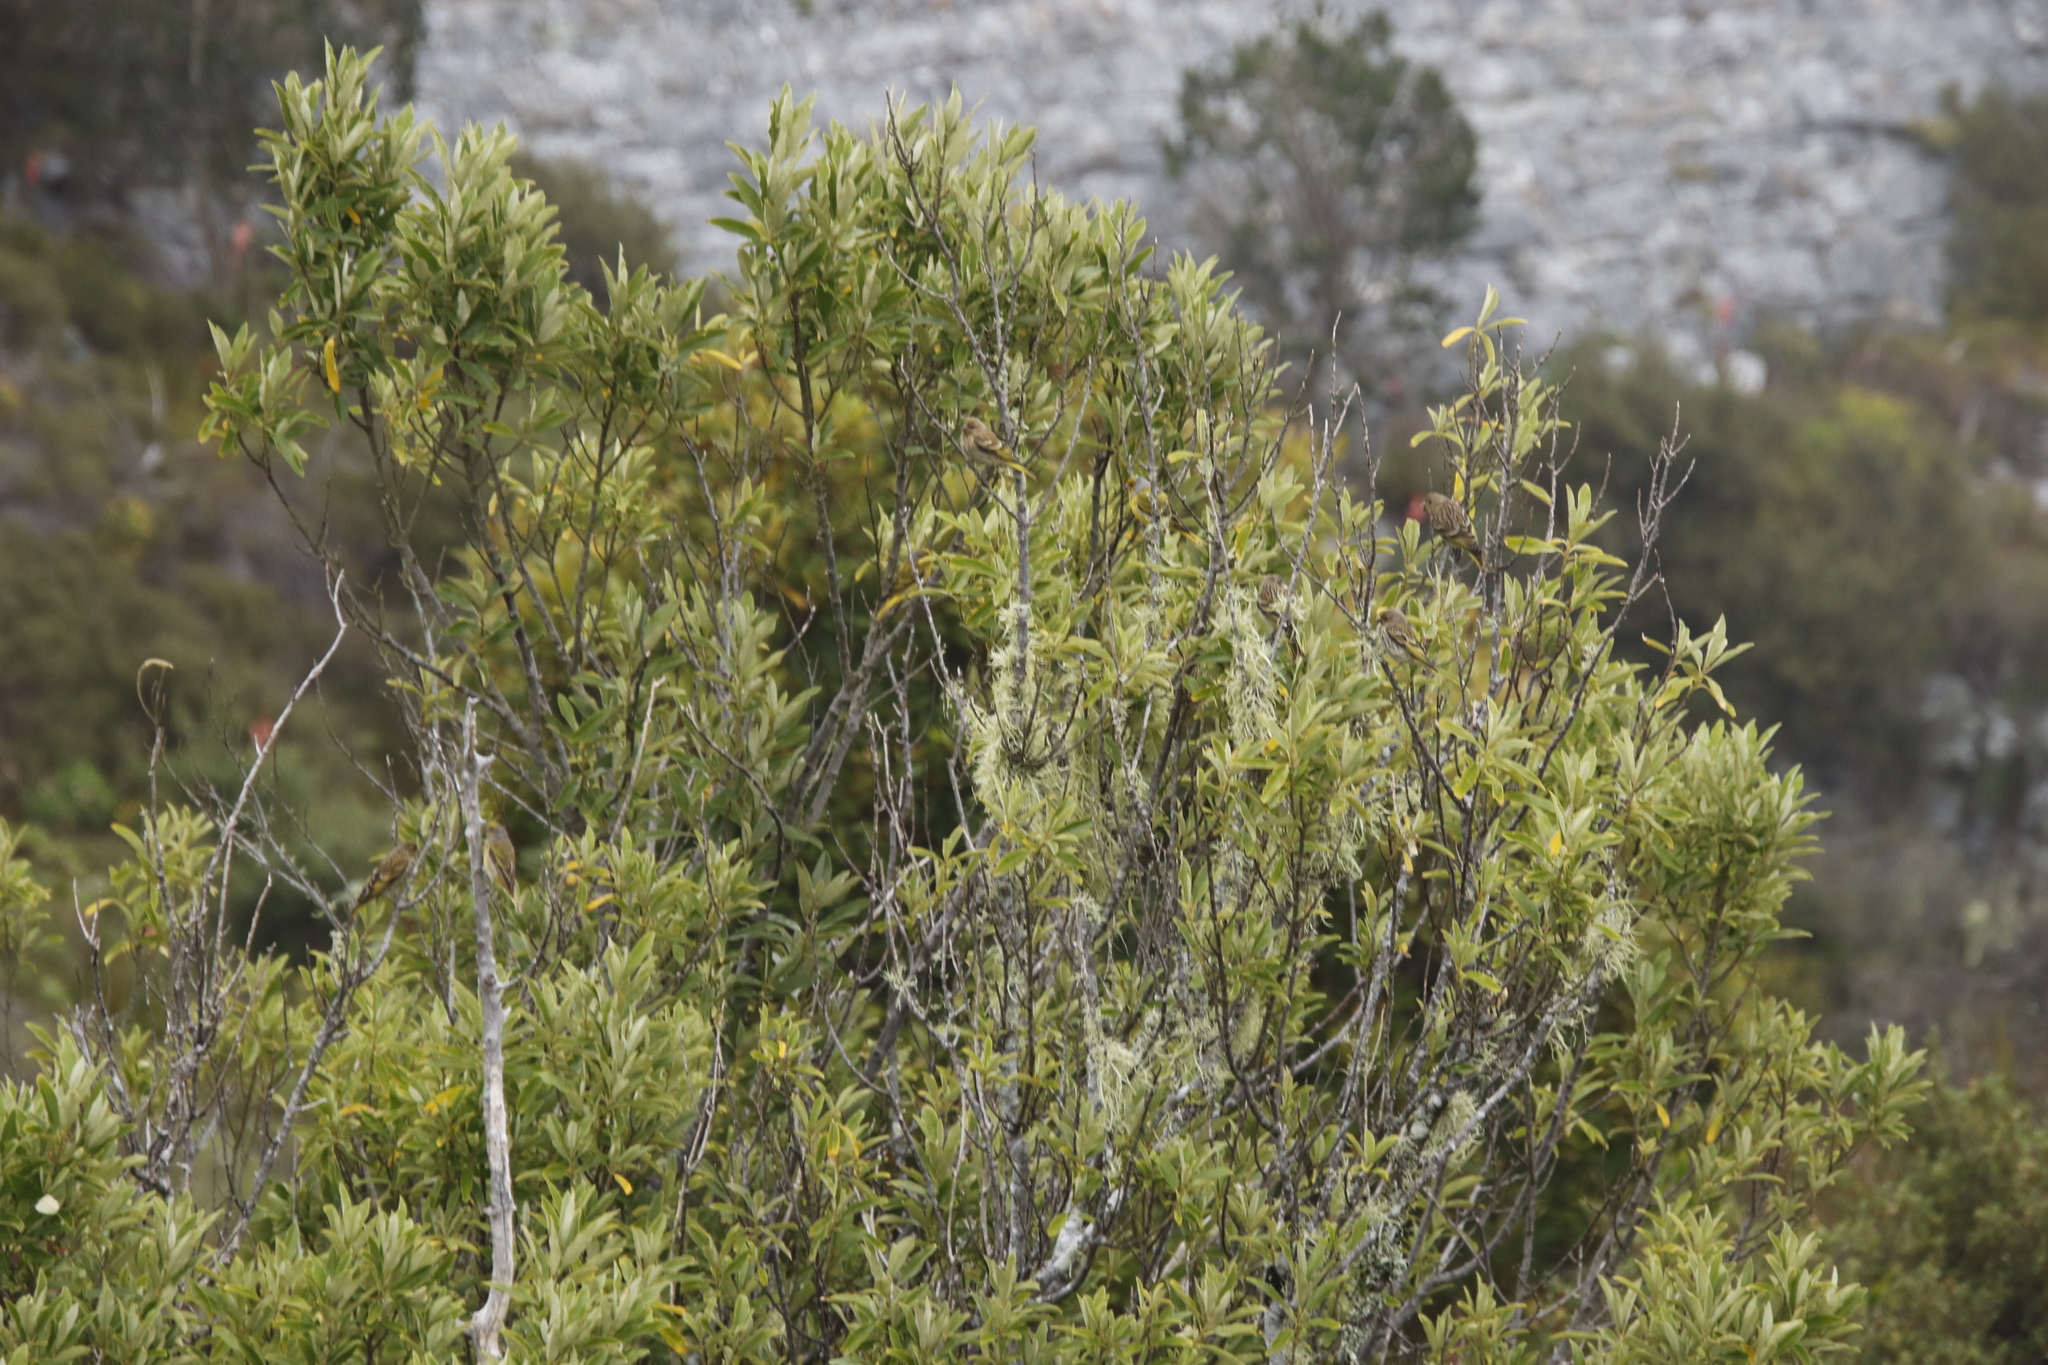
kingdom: Plantae
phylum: Tracheophyta
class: Magnoliopsida
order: Malpighiales
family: Achariaceae
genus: Kiggelaria
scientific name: Kiggelaria africana
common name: Wild peach
